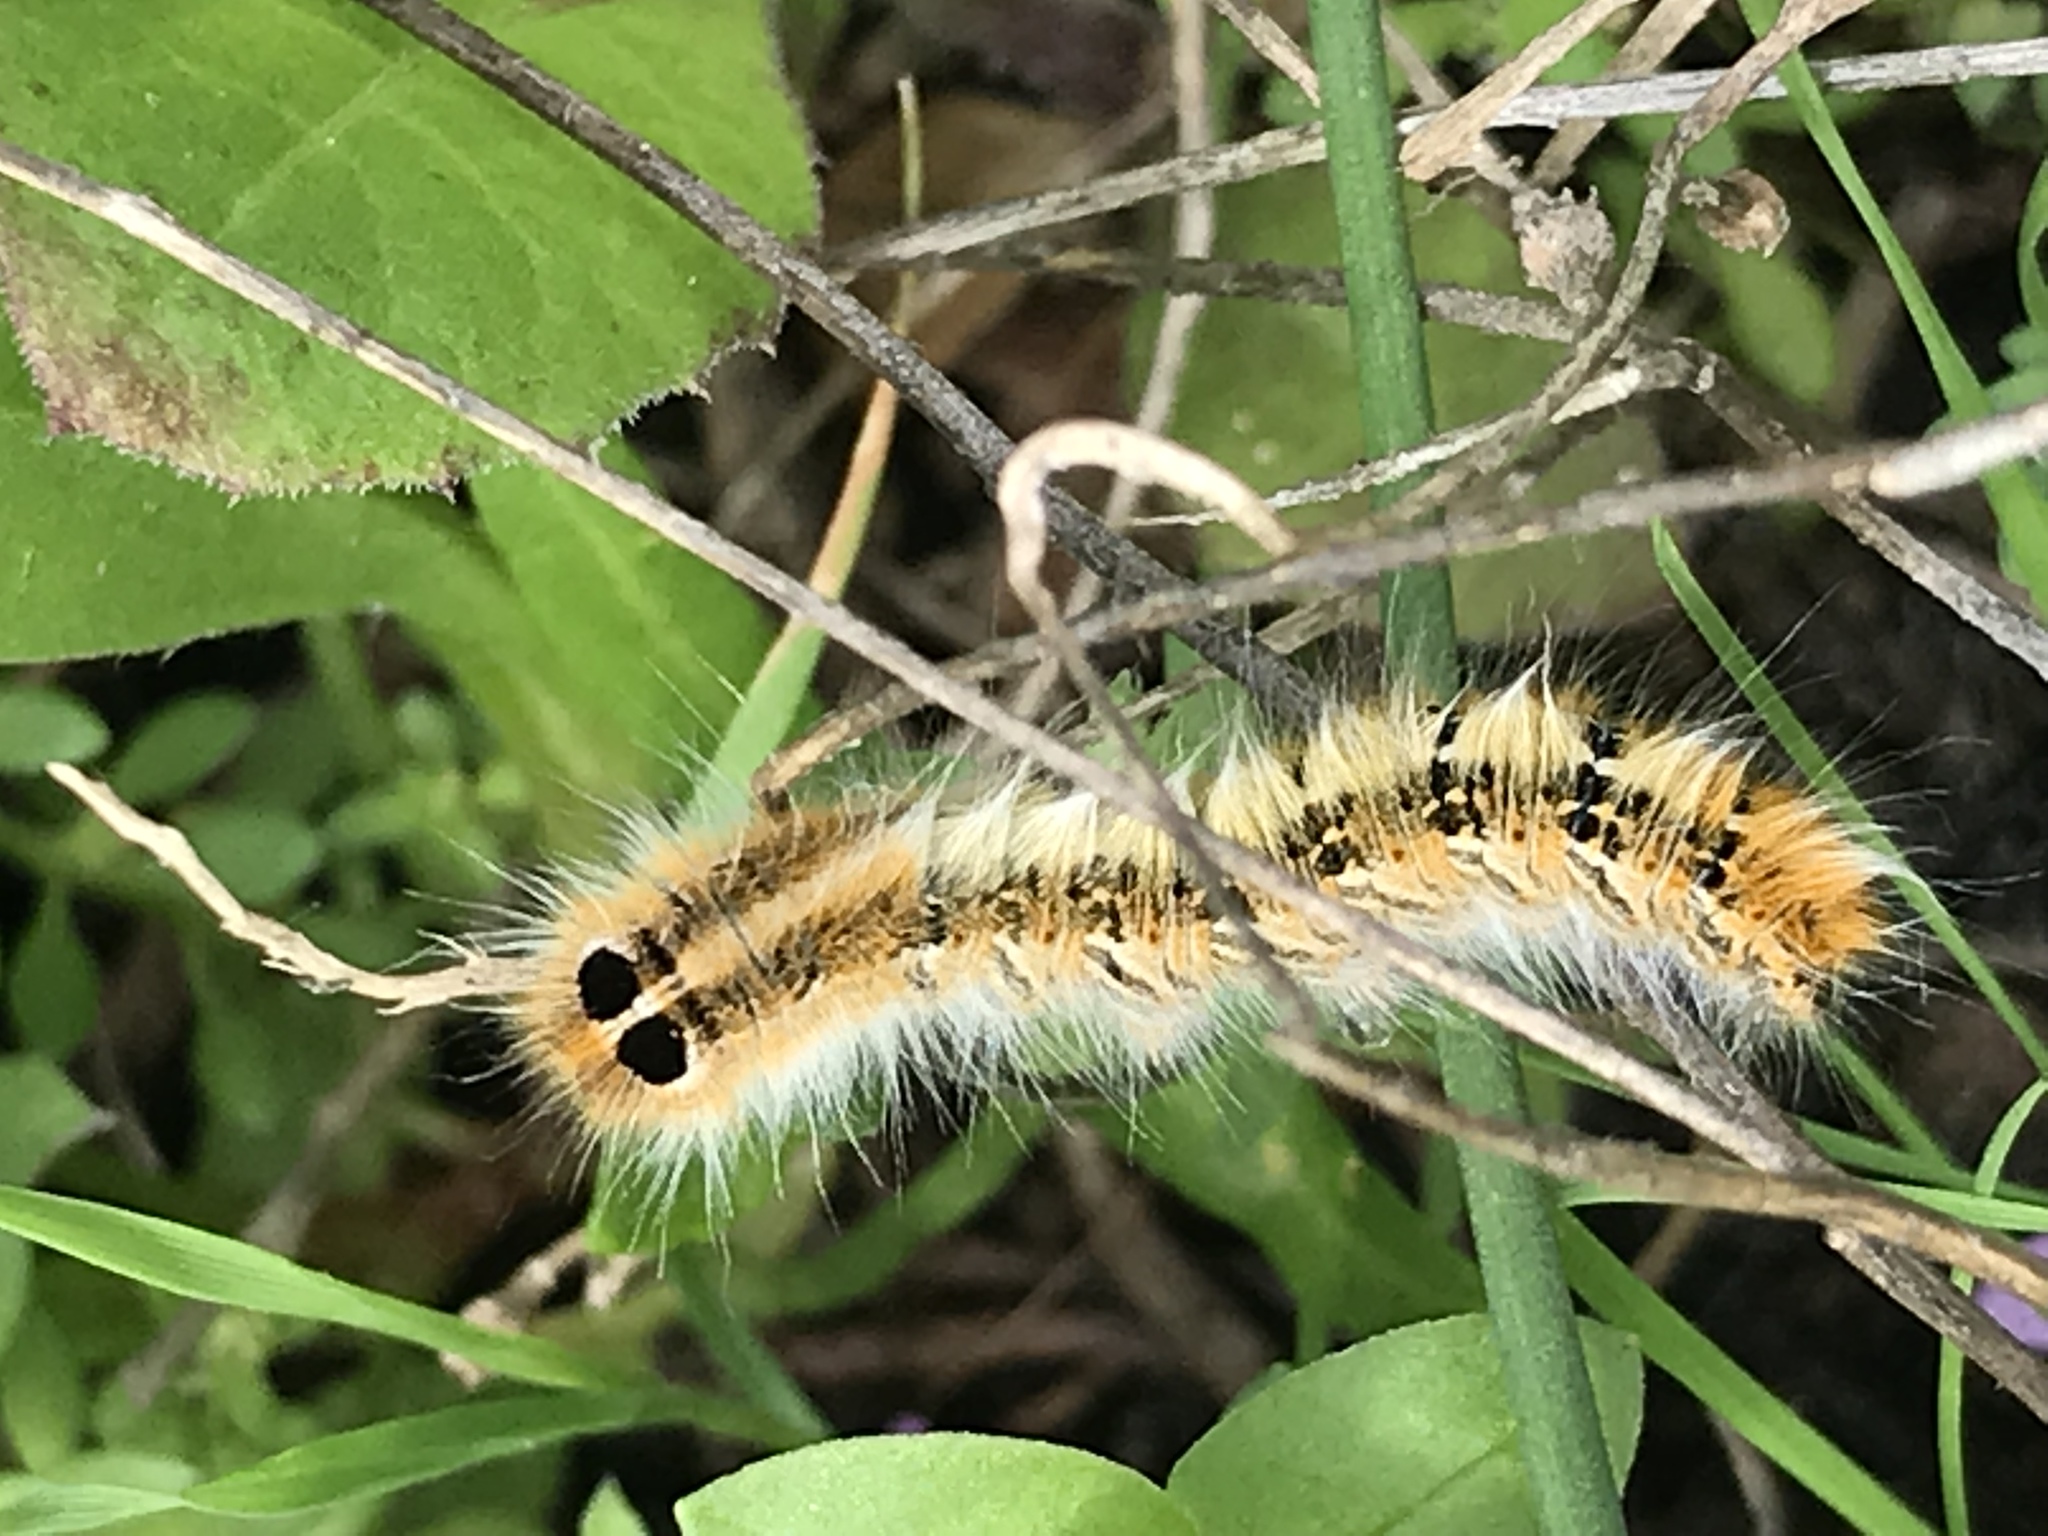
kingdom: Animalia
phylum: Arthropoda
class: Insecta
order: Lepidoptera
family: Lasiocampidae
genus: Lasiocampa
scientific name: Lasiocampa terreni
